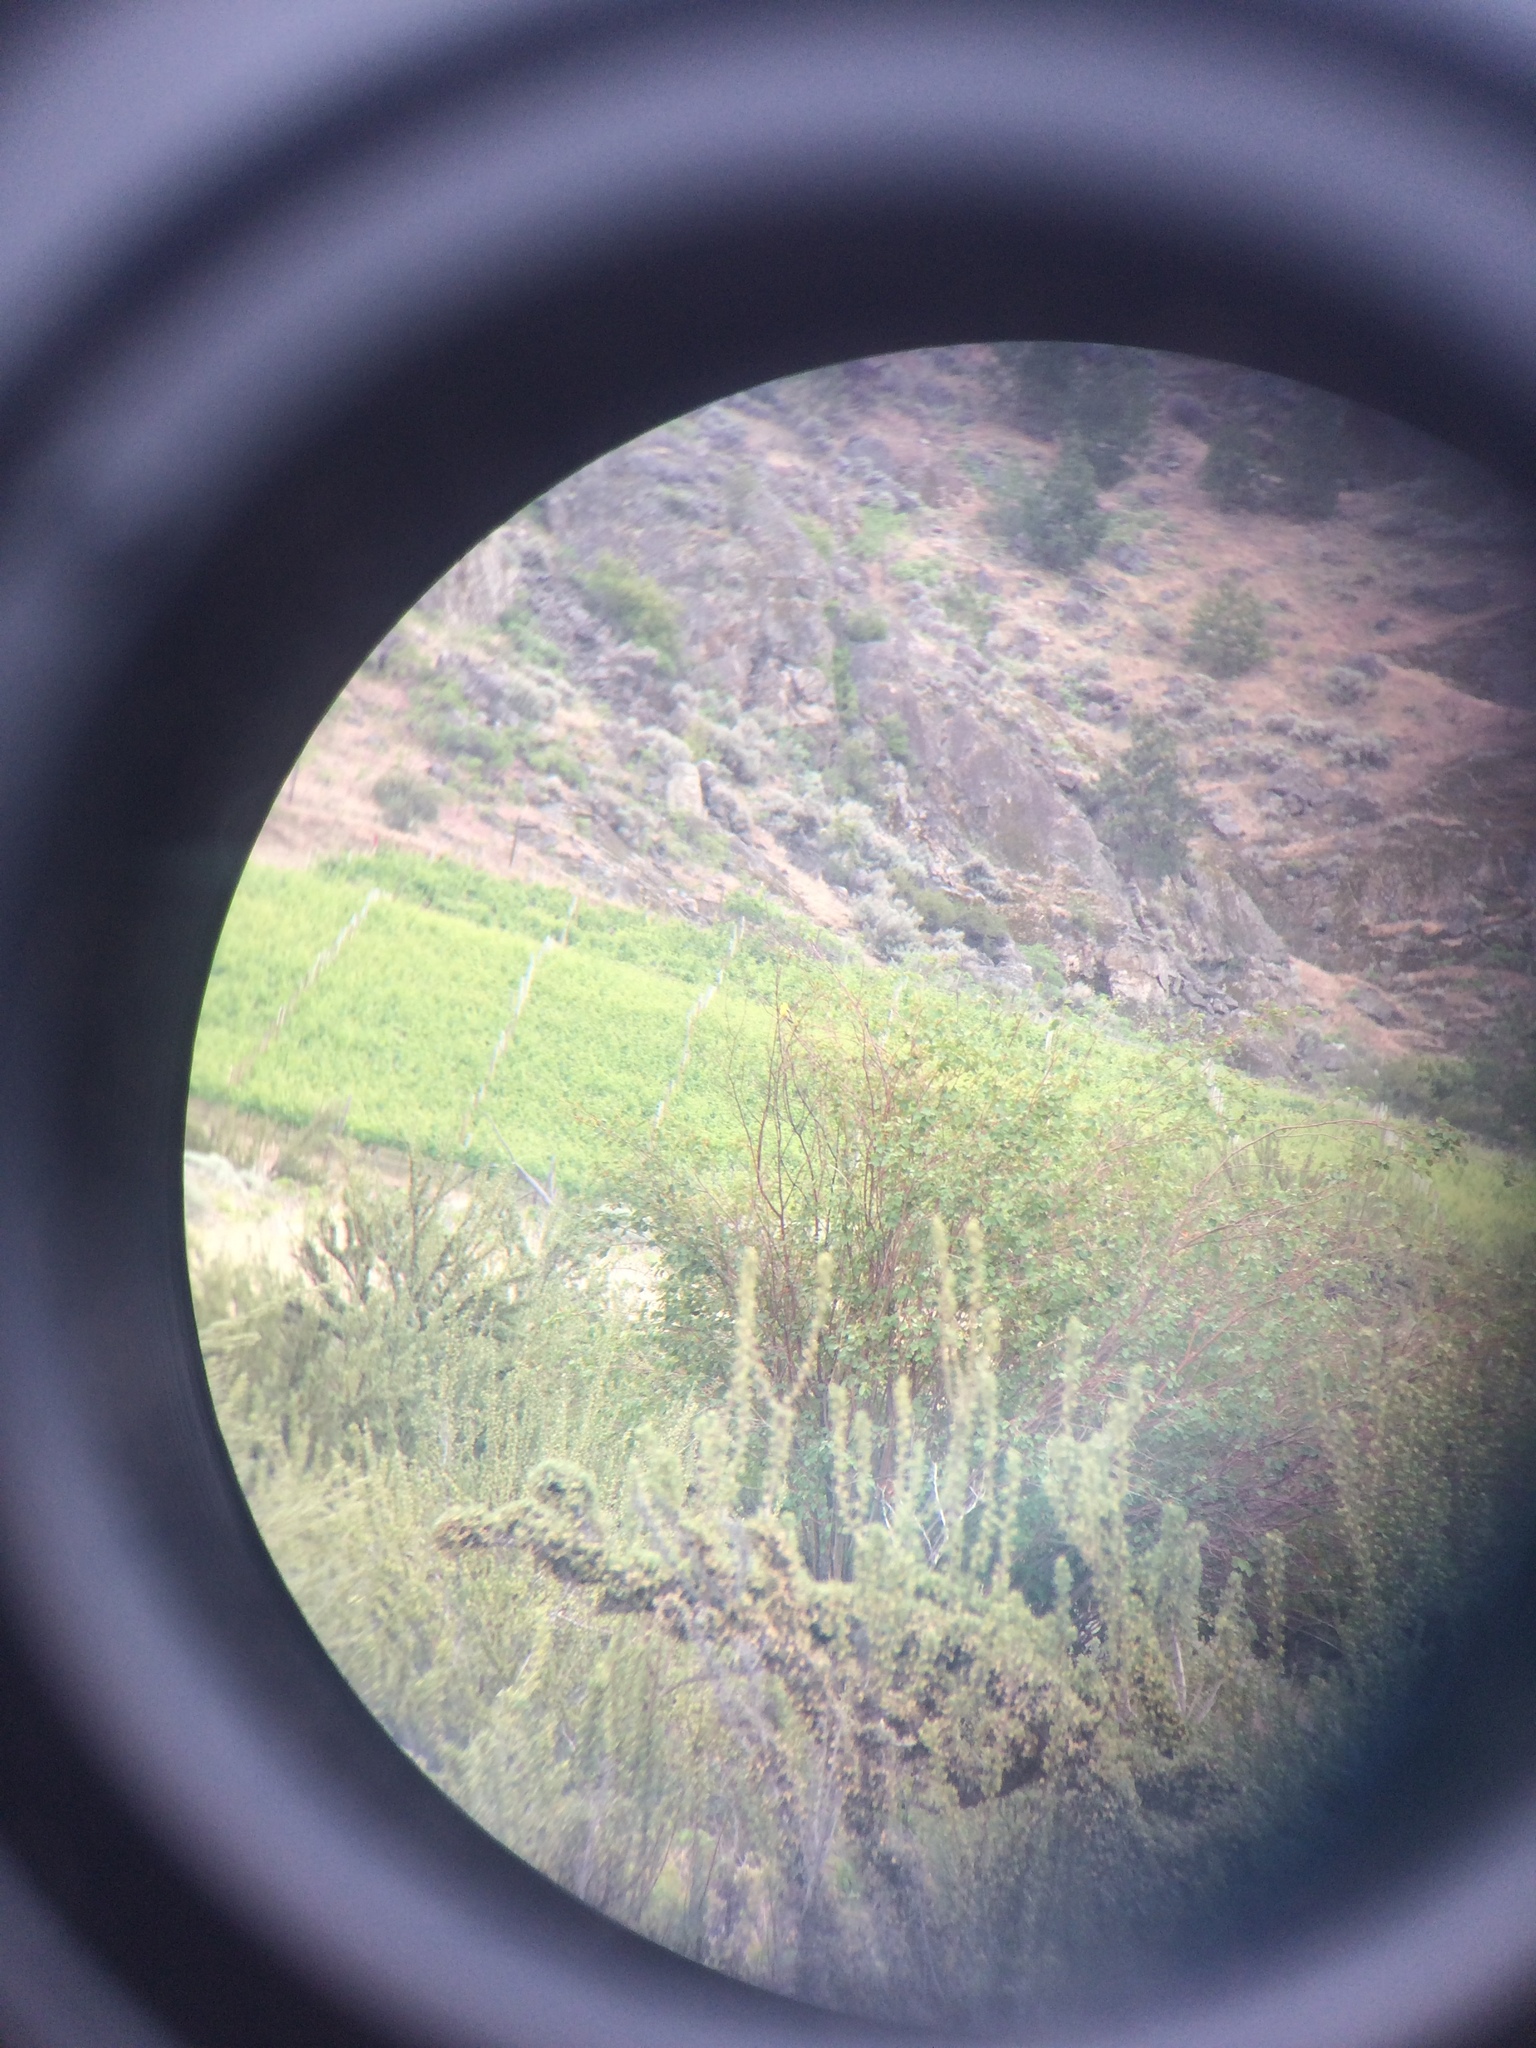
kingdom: Animalia
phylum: Chordata
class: Aves
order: Passeriformes
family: Fringillidae
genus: Spinus
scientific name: Spinus tristis
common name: American goldfinch
